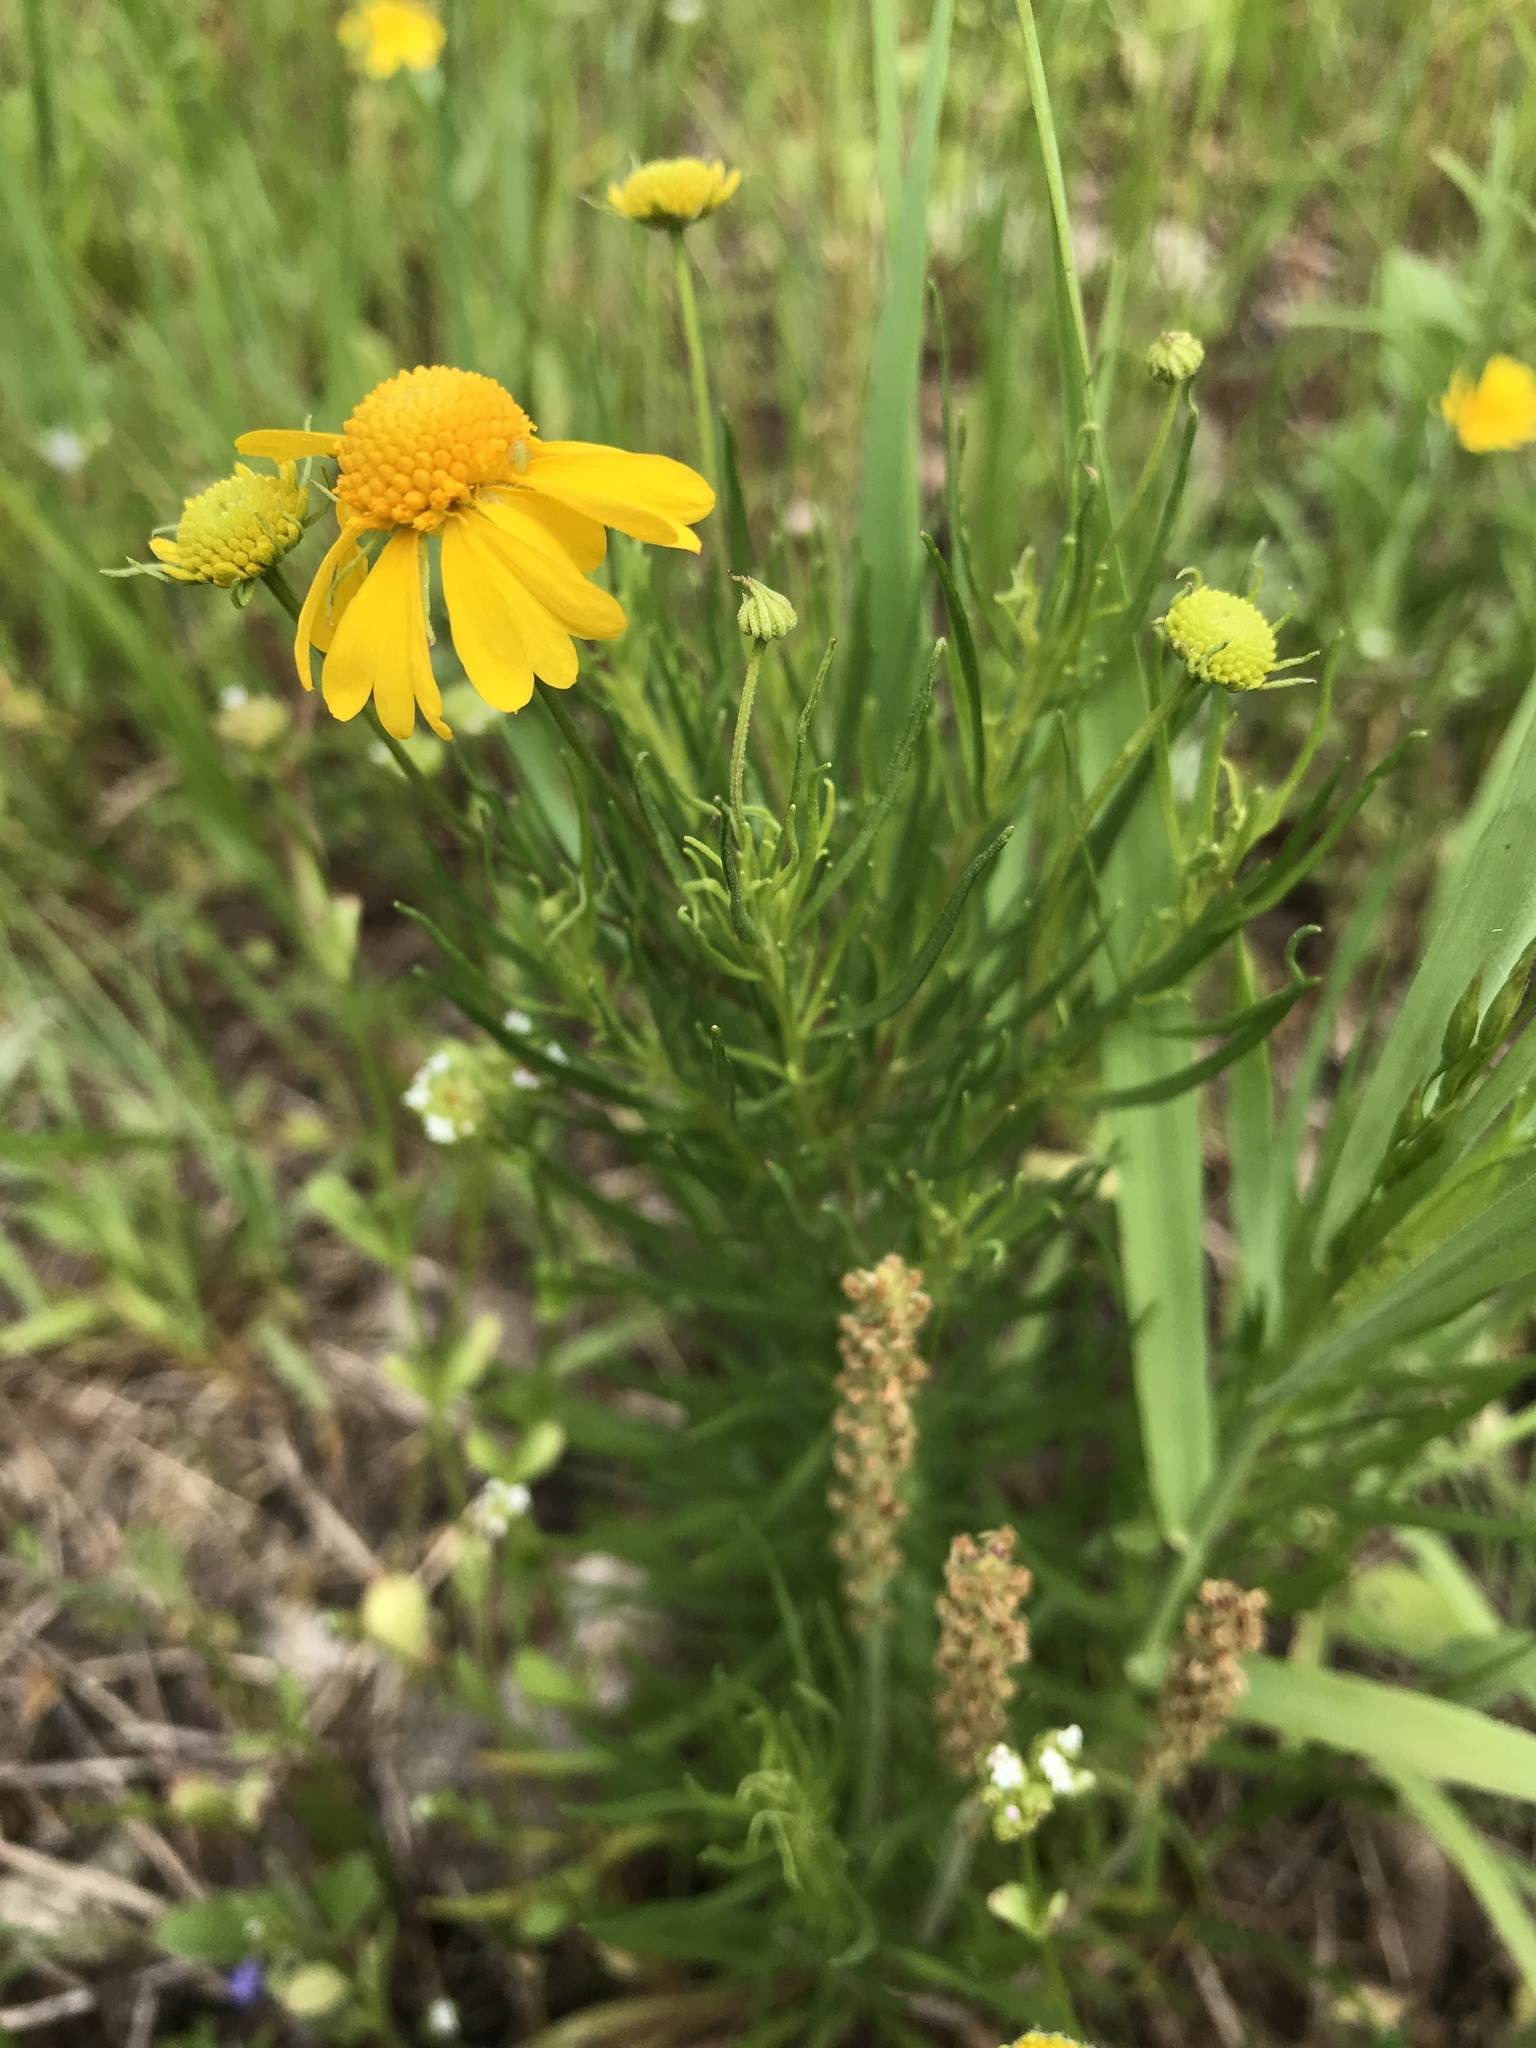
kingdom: Plantae
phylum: Tracheophyta
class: Magnoliopsida
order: Asterales
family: Asteraceae
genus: Helenium
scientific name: Helenium amarum
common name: Bitter sneezeweed
